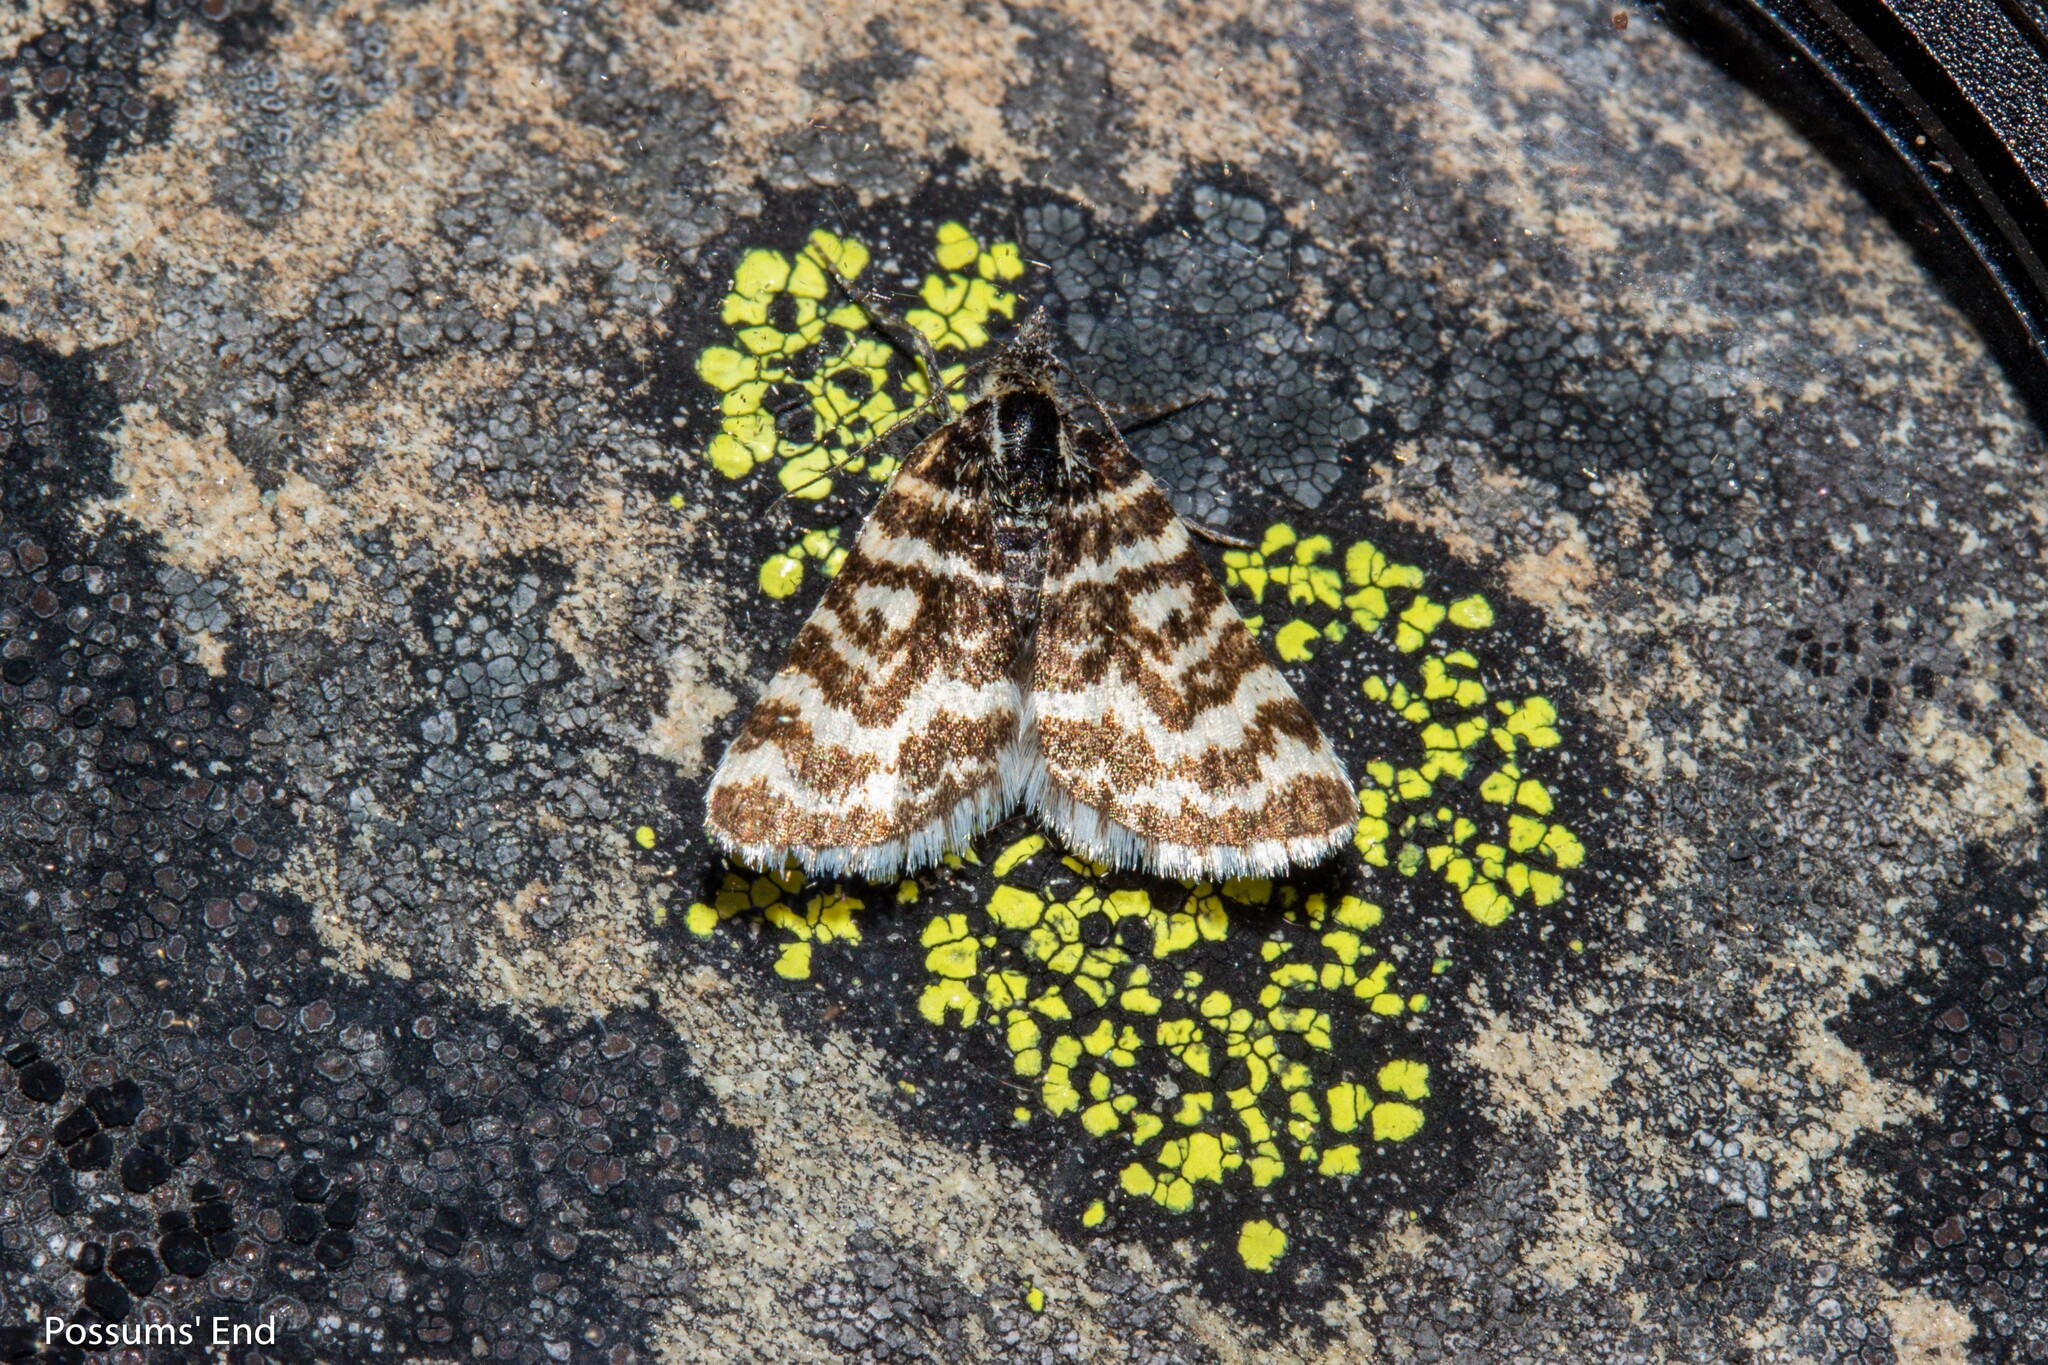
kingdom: Animalia
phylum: Arthropoda
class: Insecta
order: Lepidoptera
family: Geometridae
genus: Notoreas
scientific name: Notoreas hexaleuca
